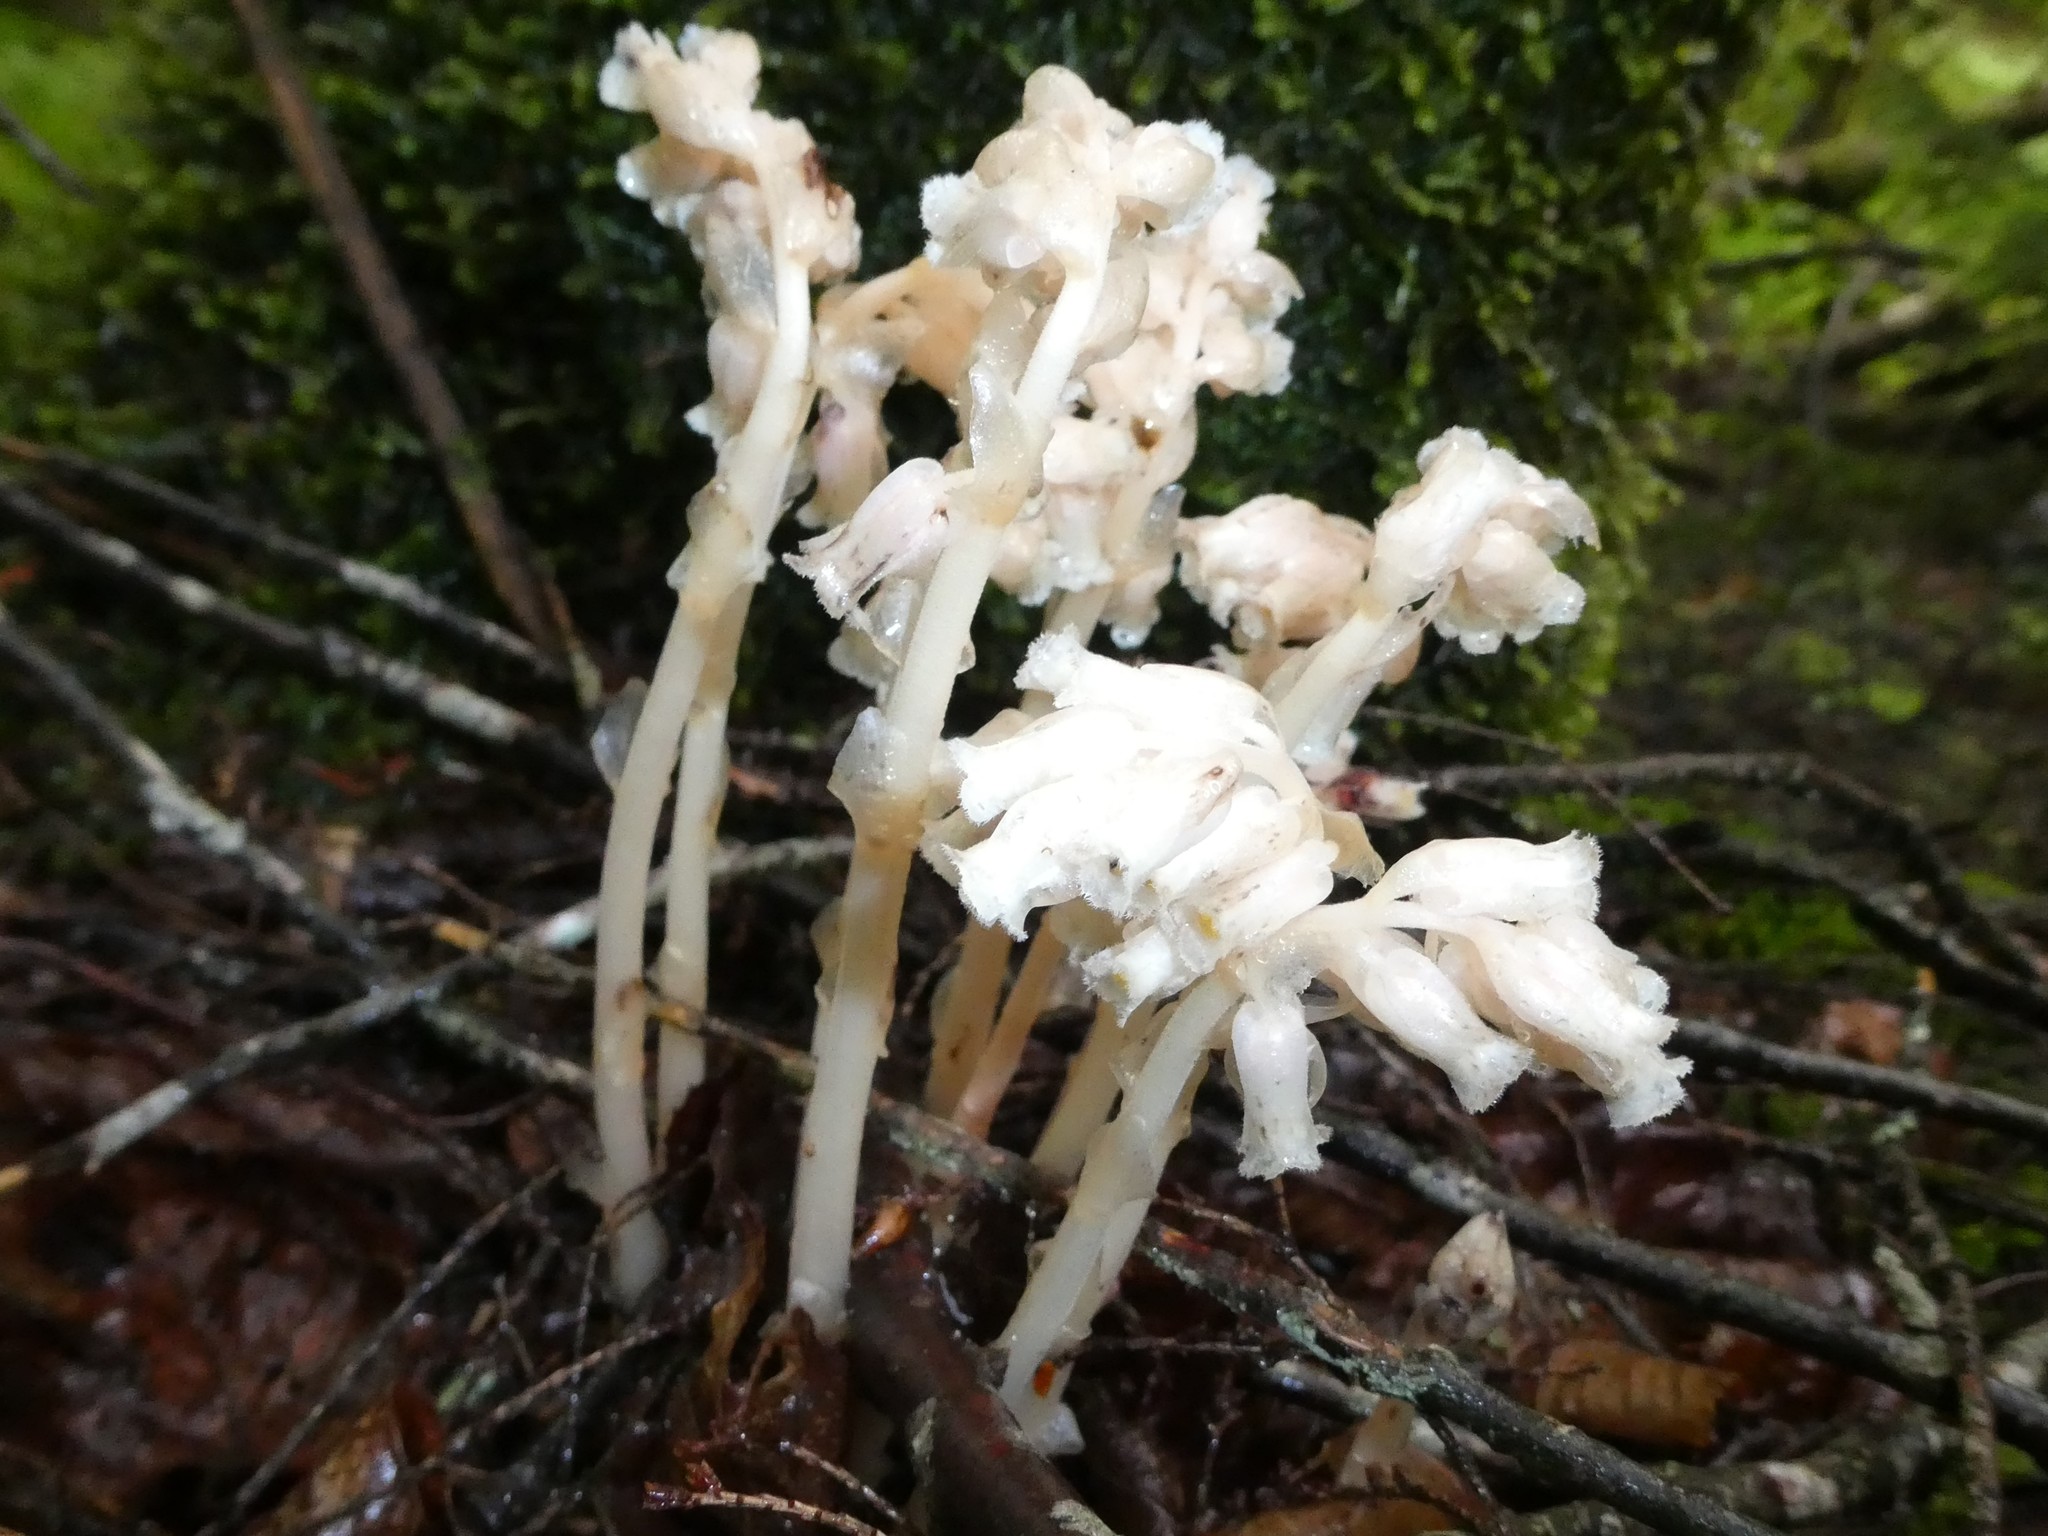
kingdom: Plantae
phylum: Tracheophyta
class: Magnoliopsida
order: Ericales
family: Ericaceae
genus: Hypopitys
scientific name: Hypopitys monotropa
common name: Yellow bird's-nest
